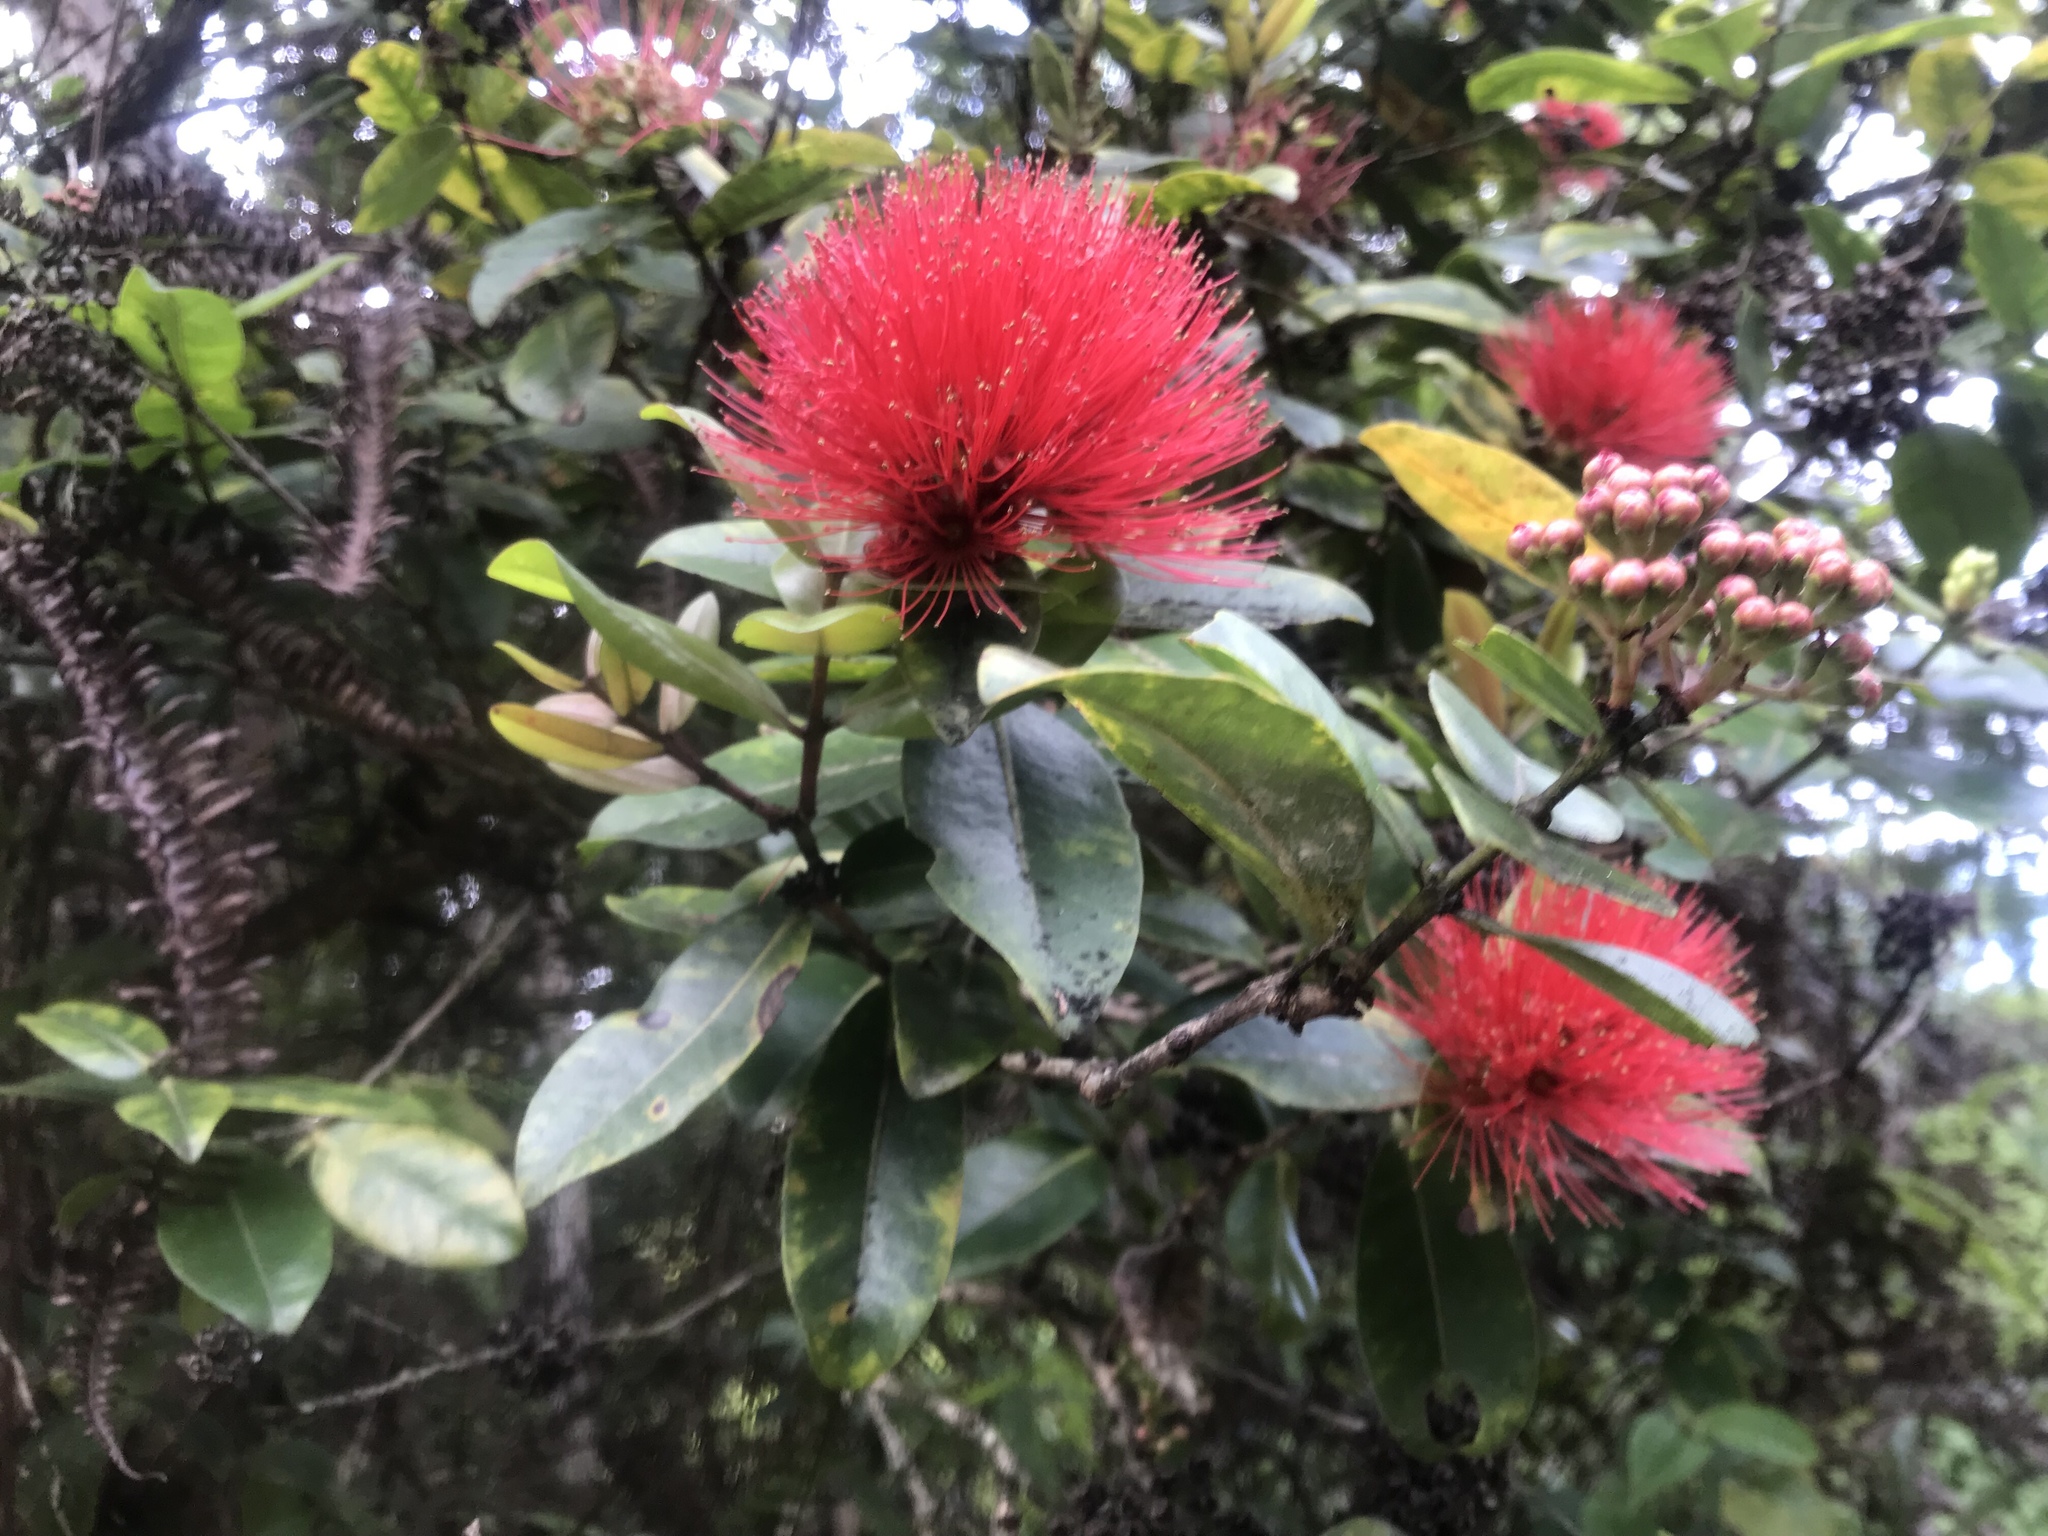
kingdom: Plantae
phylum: Tracheophyta
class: Magnoliopsida
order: Myrtales
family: Myrtaceae
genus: Metrosideros
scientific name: Metrosideros polymorpha
